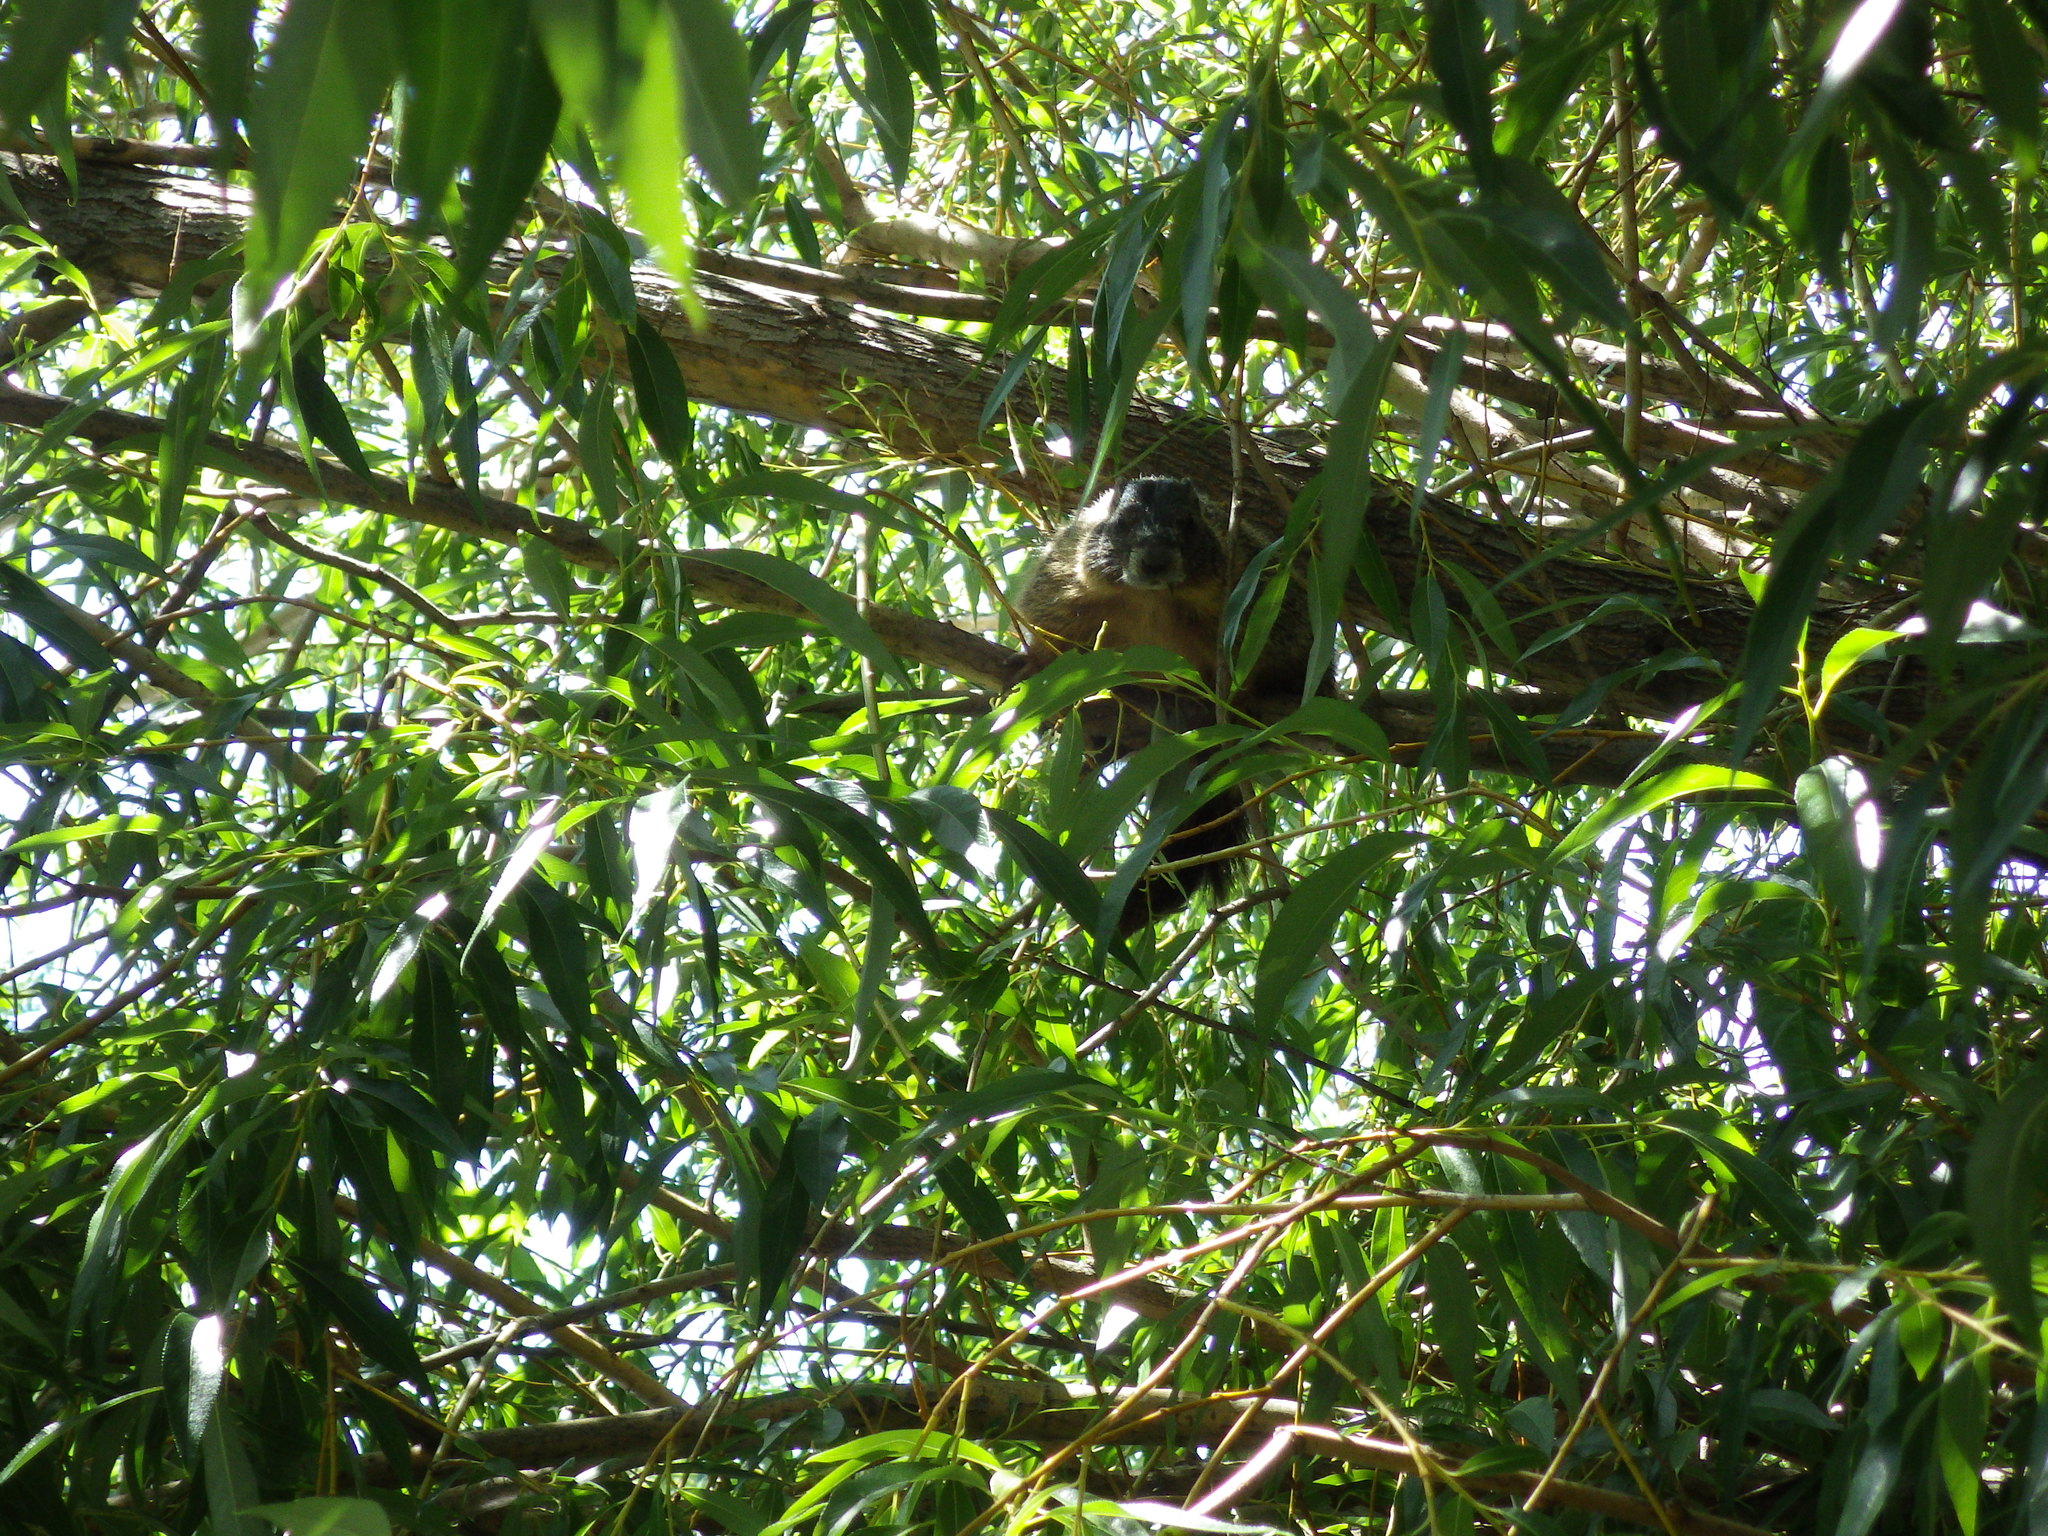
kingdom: Animalia
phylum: Chordata
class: Mammalia
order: Rodentia
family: Sciuridae
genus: Marmota
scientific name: Marmota flaviventris
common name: Yellow-bellied marmot
